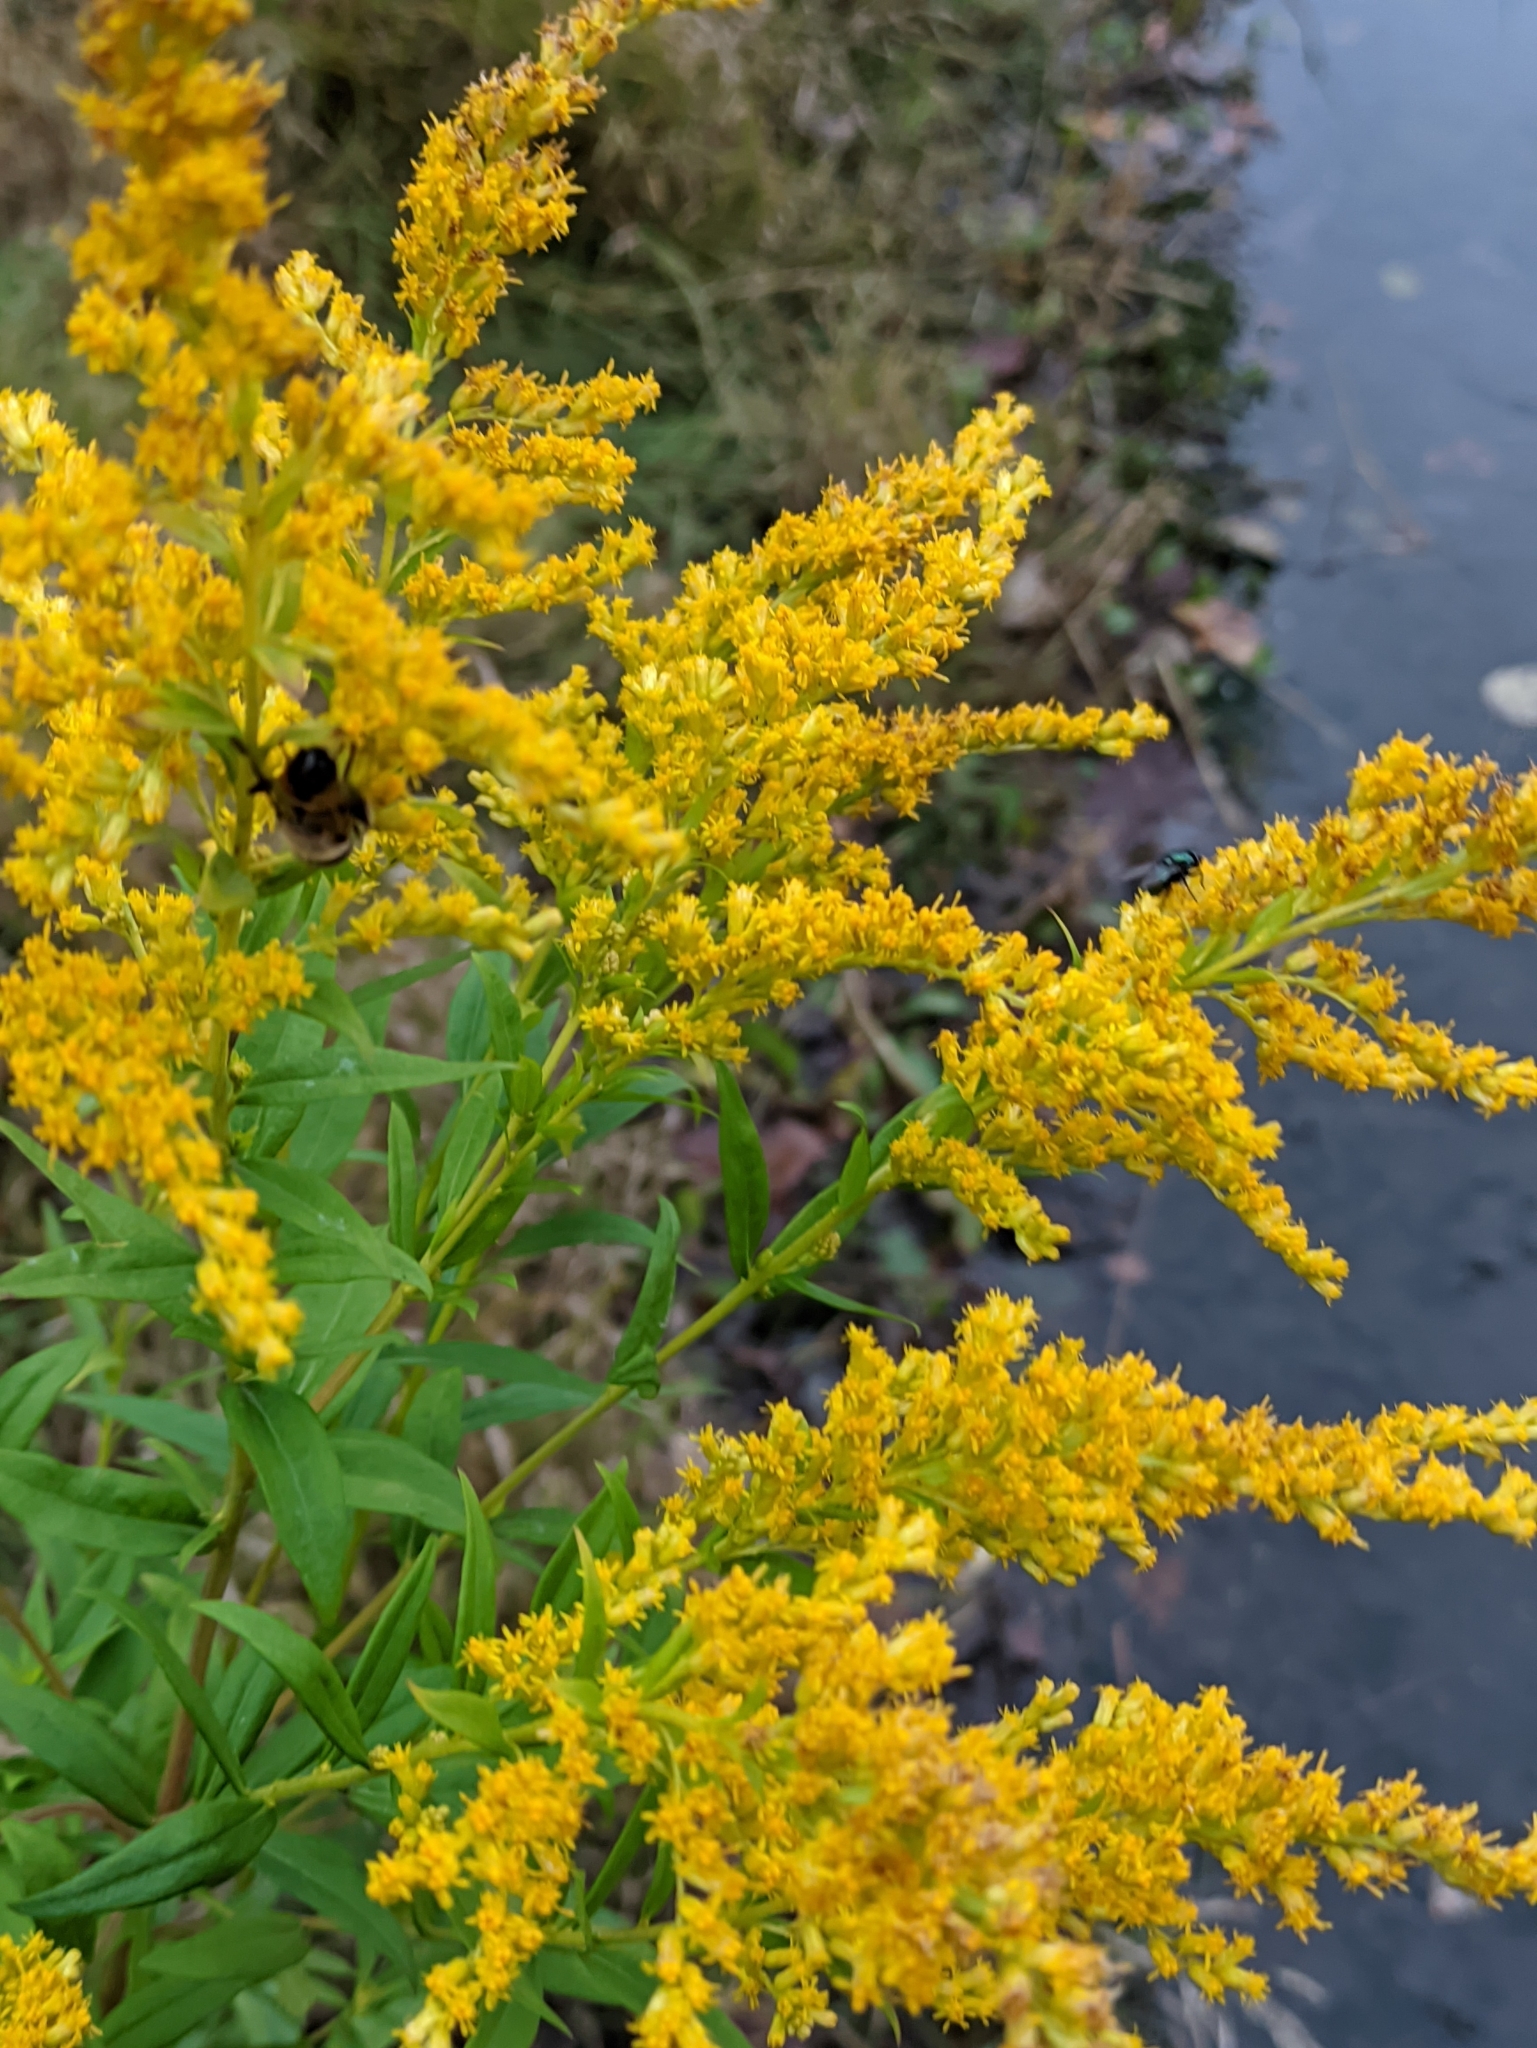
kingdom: Plantae
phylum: Tracheophyta
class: Magnoliopsida
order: Asterales
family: Asteraceae
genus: Solidago
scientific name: Solidago canadensis
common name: Canada goldenrod
